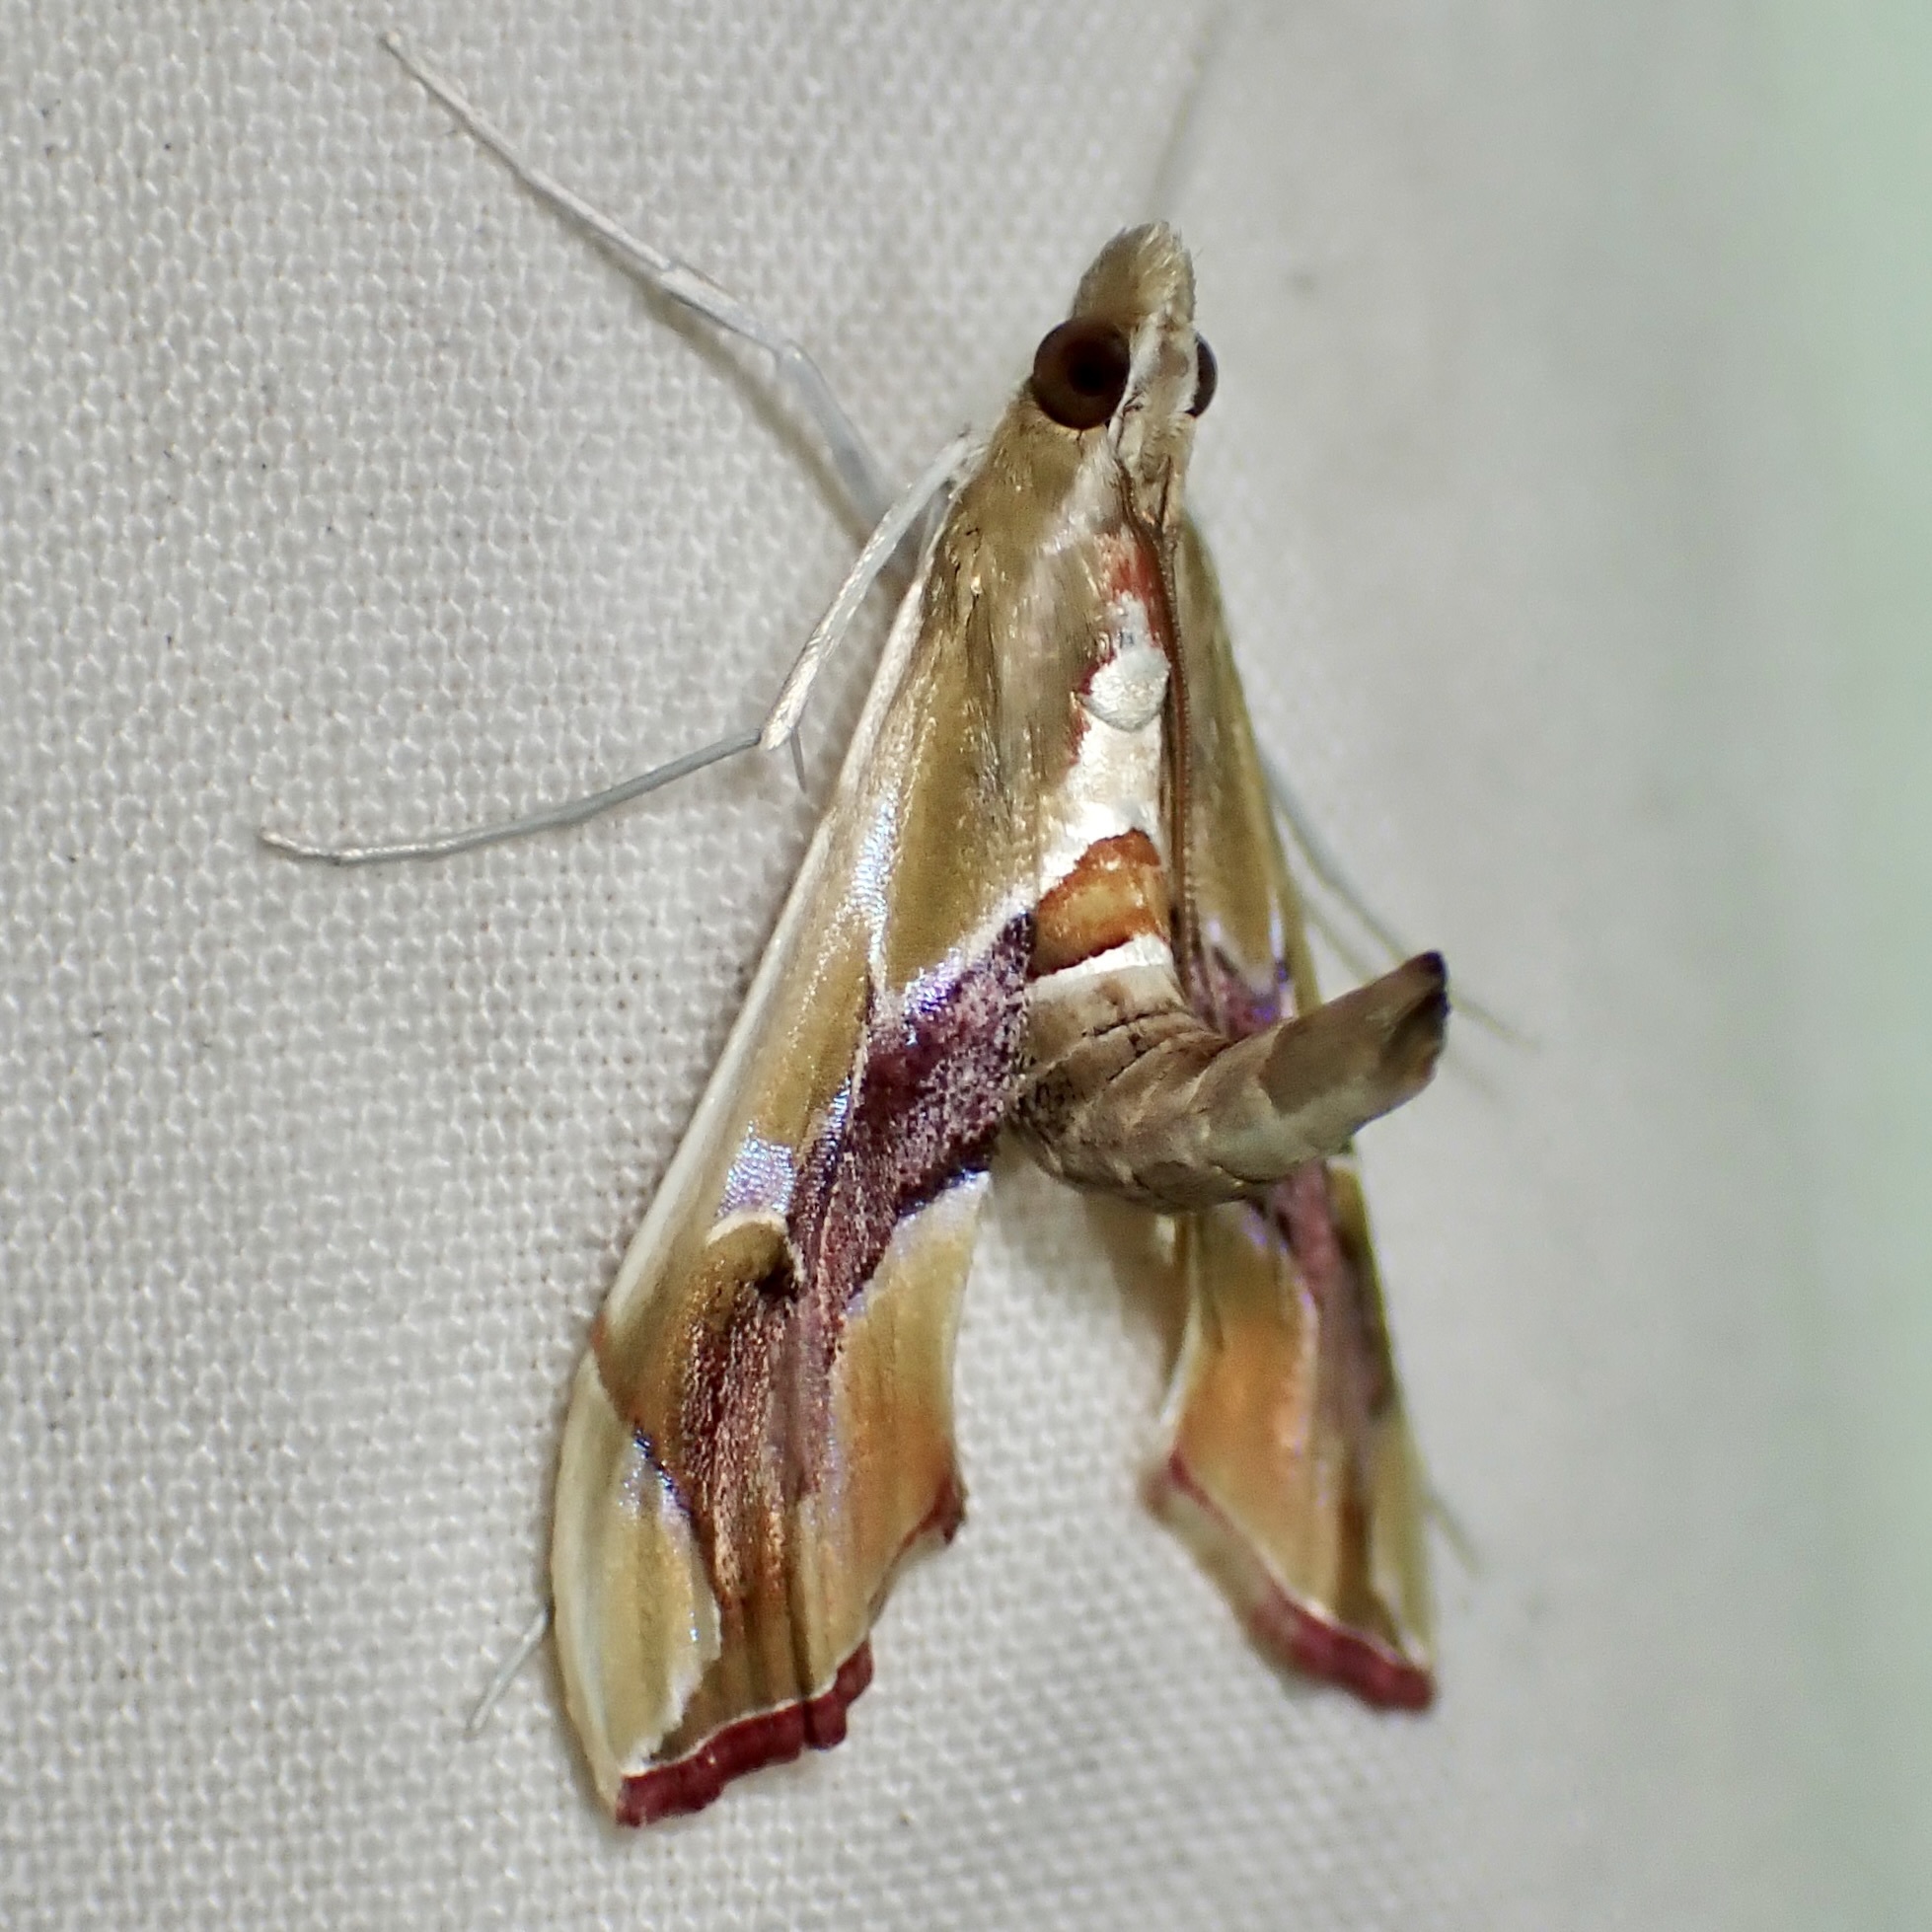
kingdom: Animalia
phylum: Arthropoda
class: Insecta
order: Lepidoptera
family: Crambidae
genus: Agathodes
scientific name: Agathodes monstralis
